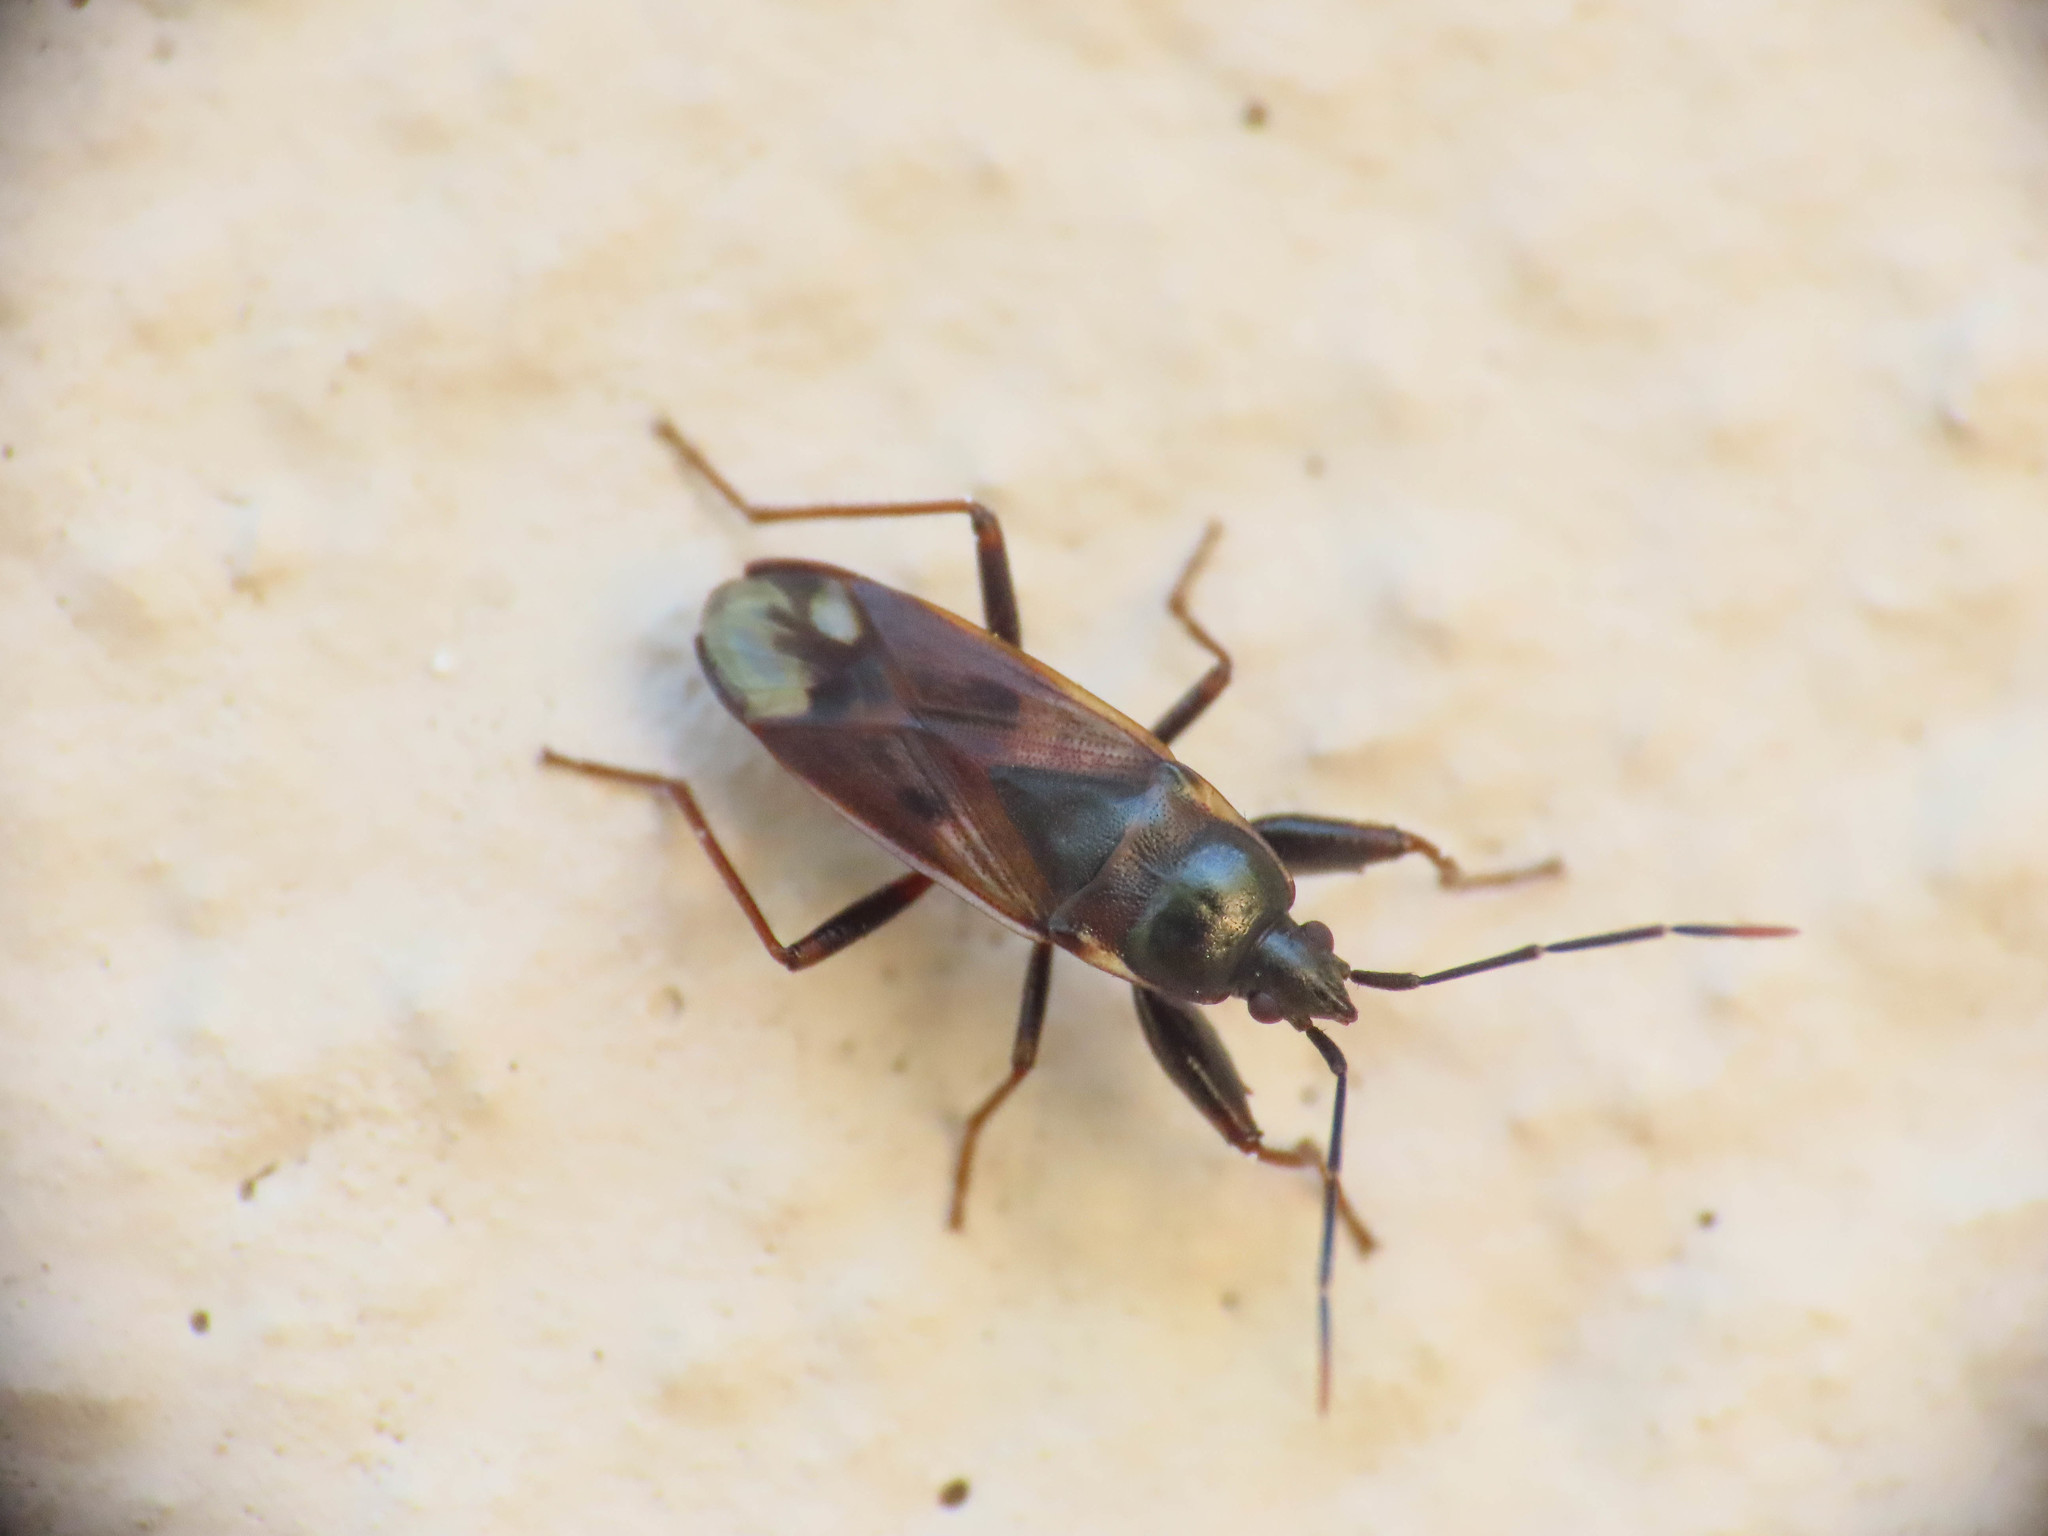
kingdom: Animalia
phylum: Arthropoda
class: Insecta
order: Hemiptera
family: Rhyparochromidae
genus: Eremocoris
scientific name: Eremocoris fenestratus
